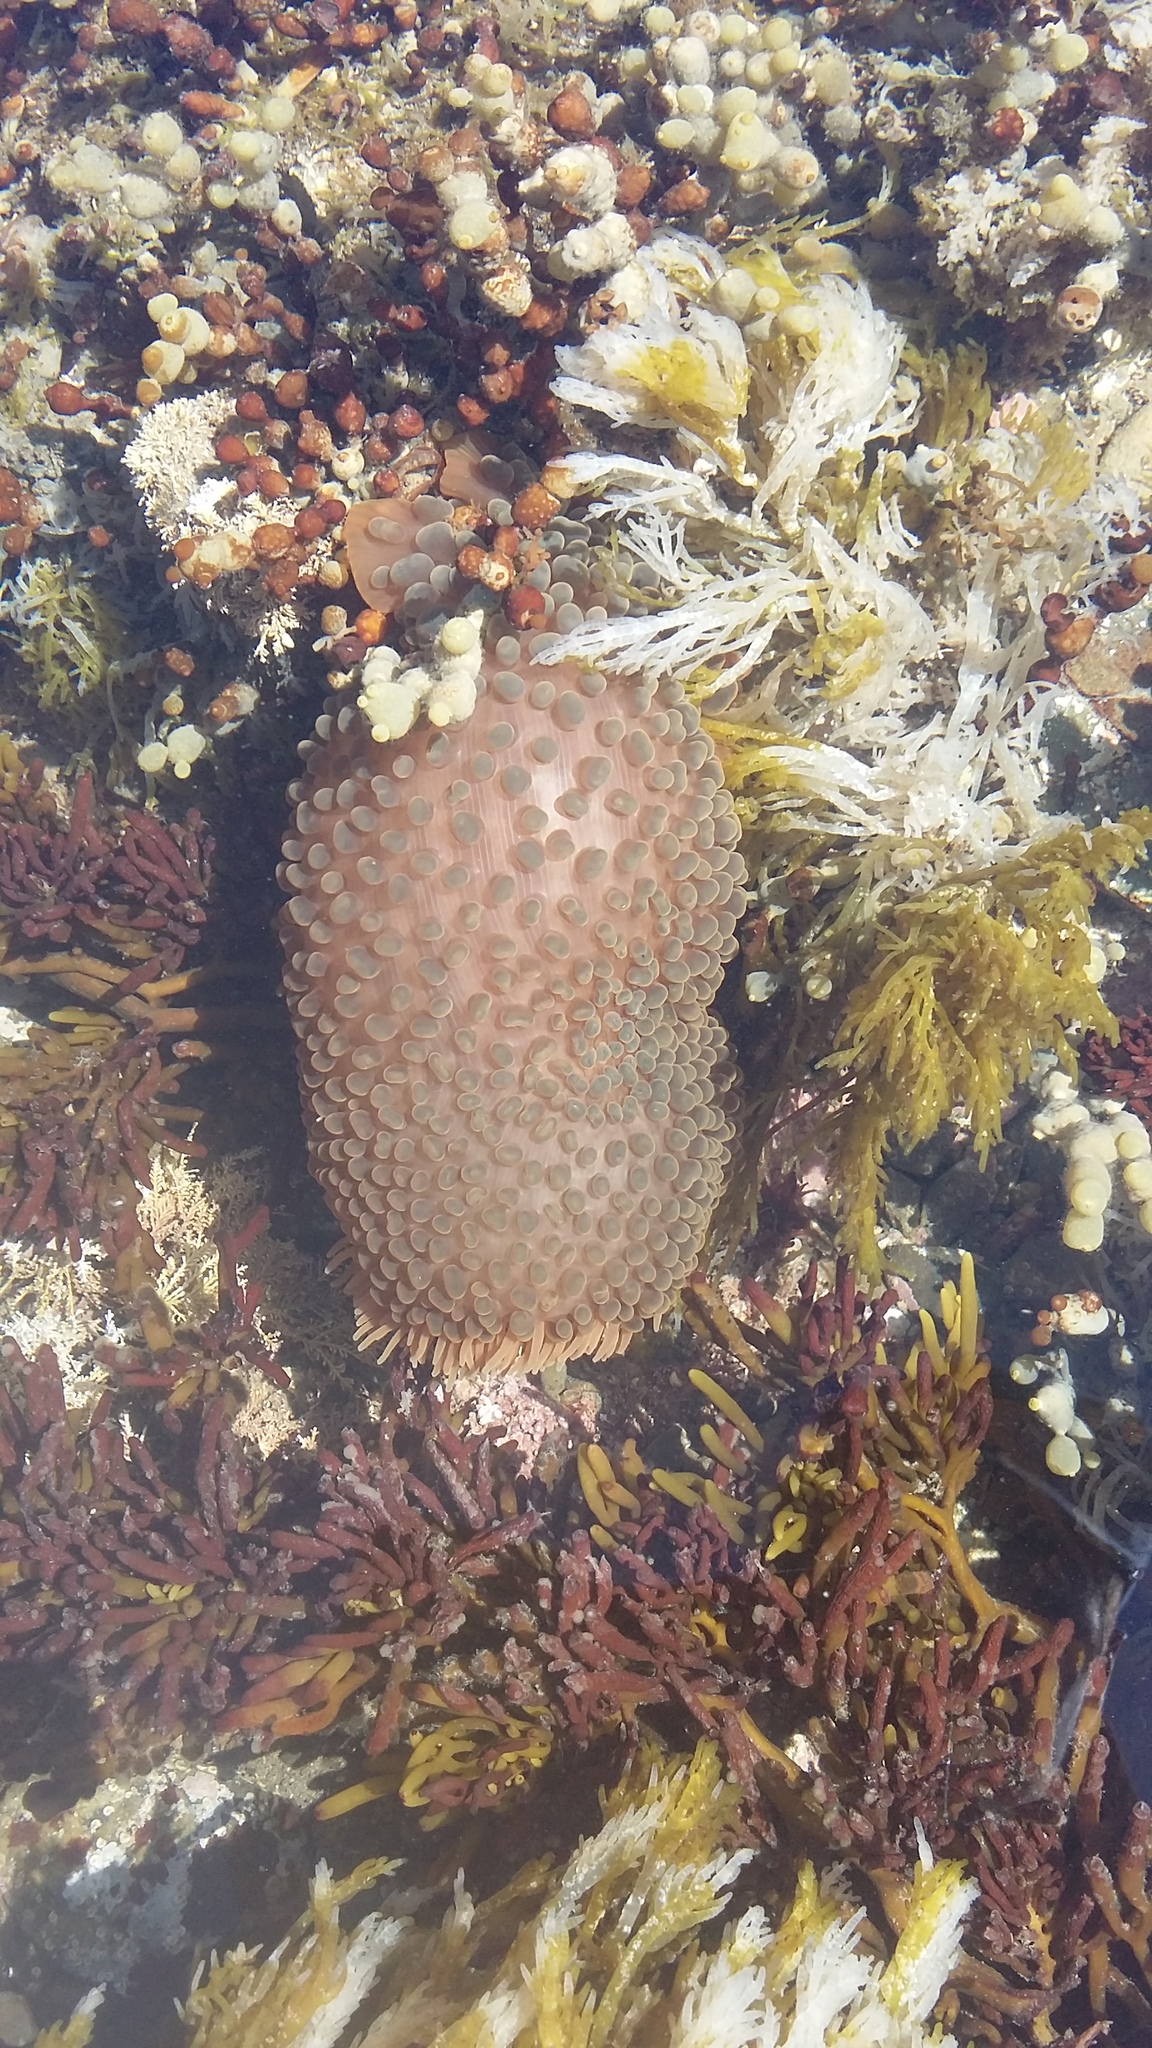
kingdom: Animalia
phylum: Cnidaria
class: Anthozoa
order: Actiniaria
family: Actiniidae
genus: Phlyctenactis
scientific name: Phlyctenactis tuberculosa
